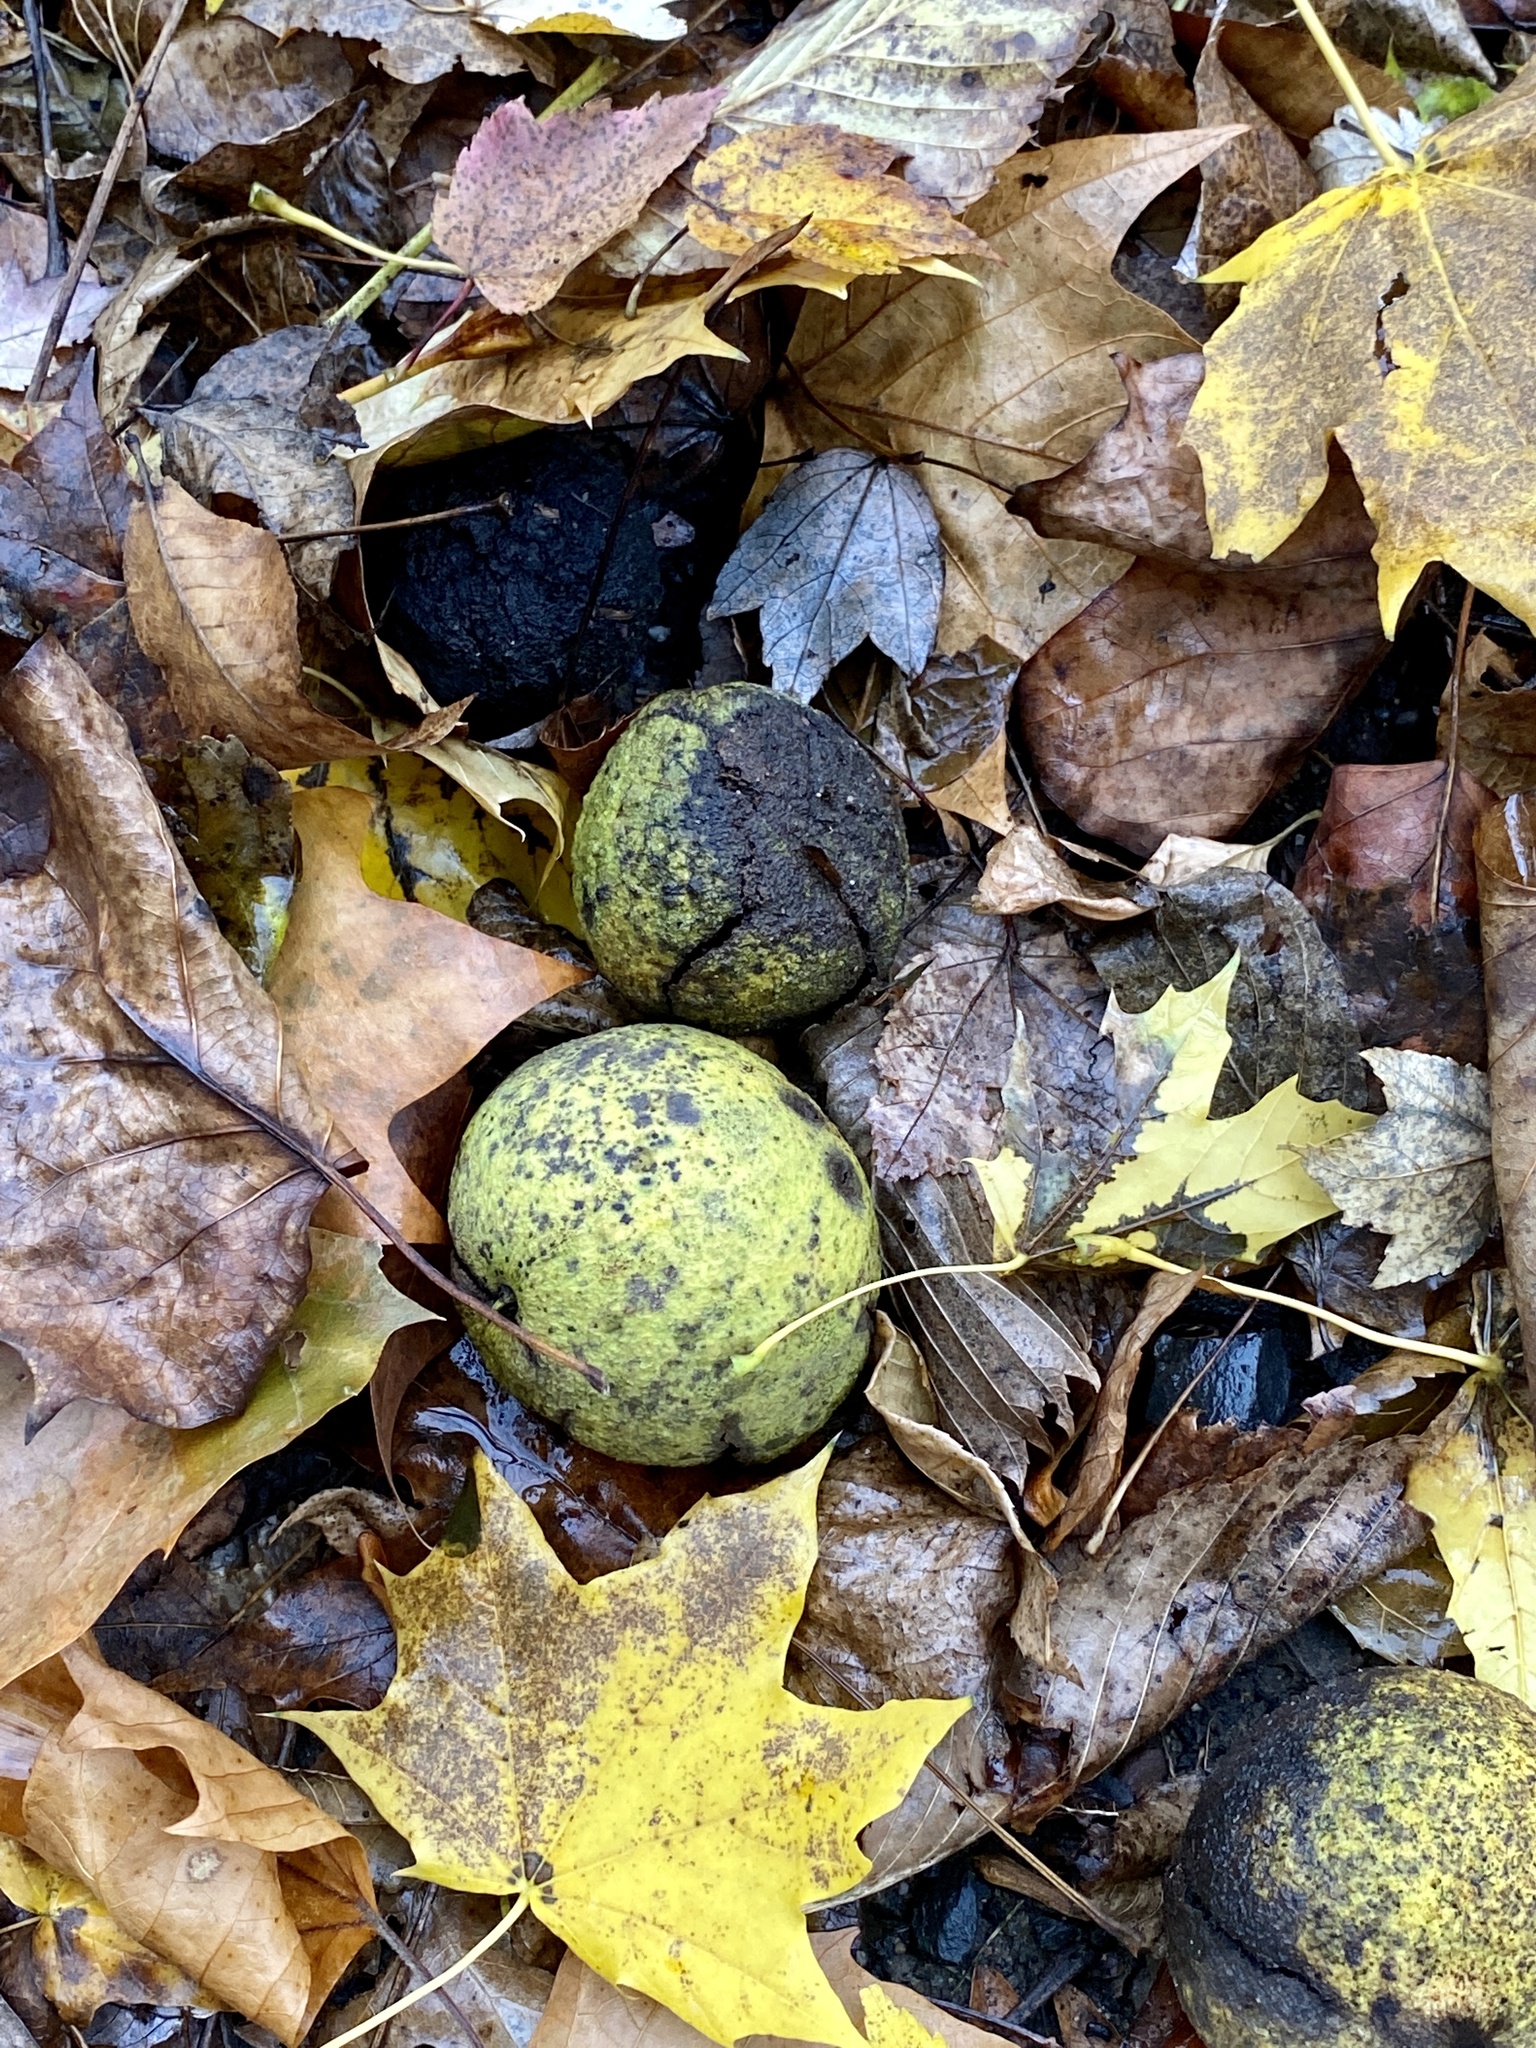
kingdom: Plantae
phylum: Tracheophyta
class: Magnoliopsida
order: Fagales
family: Juglandaceae
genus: Juglans
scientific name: Juglans nigra
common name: Black walnut
